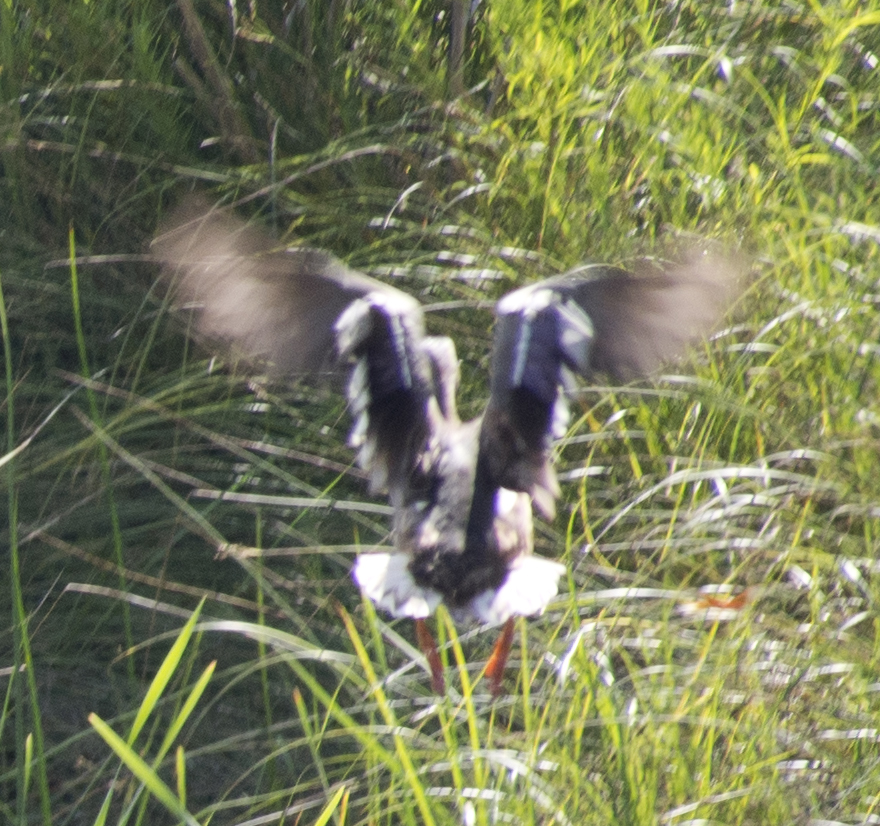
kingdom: Animalia
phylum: Chordata
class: Aves
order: Anseriformes
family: Anatidae
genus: Anas
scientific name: Anas platyrhynchos
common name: Mallard
